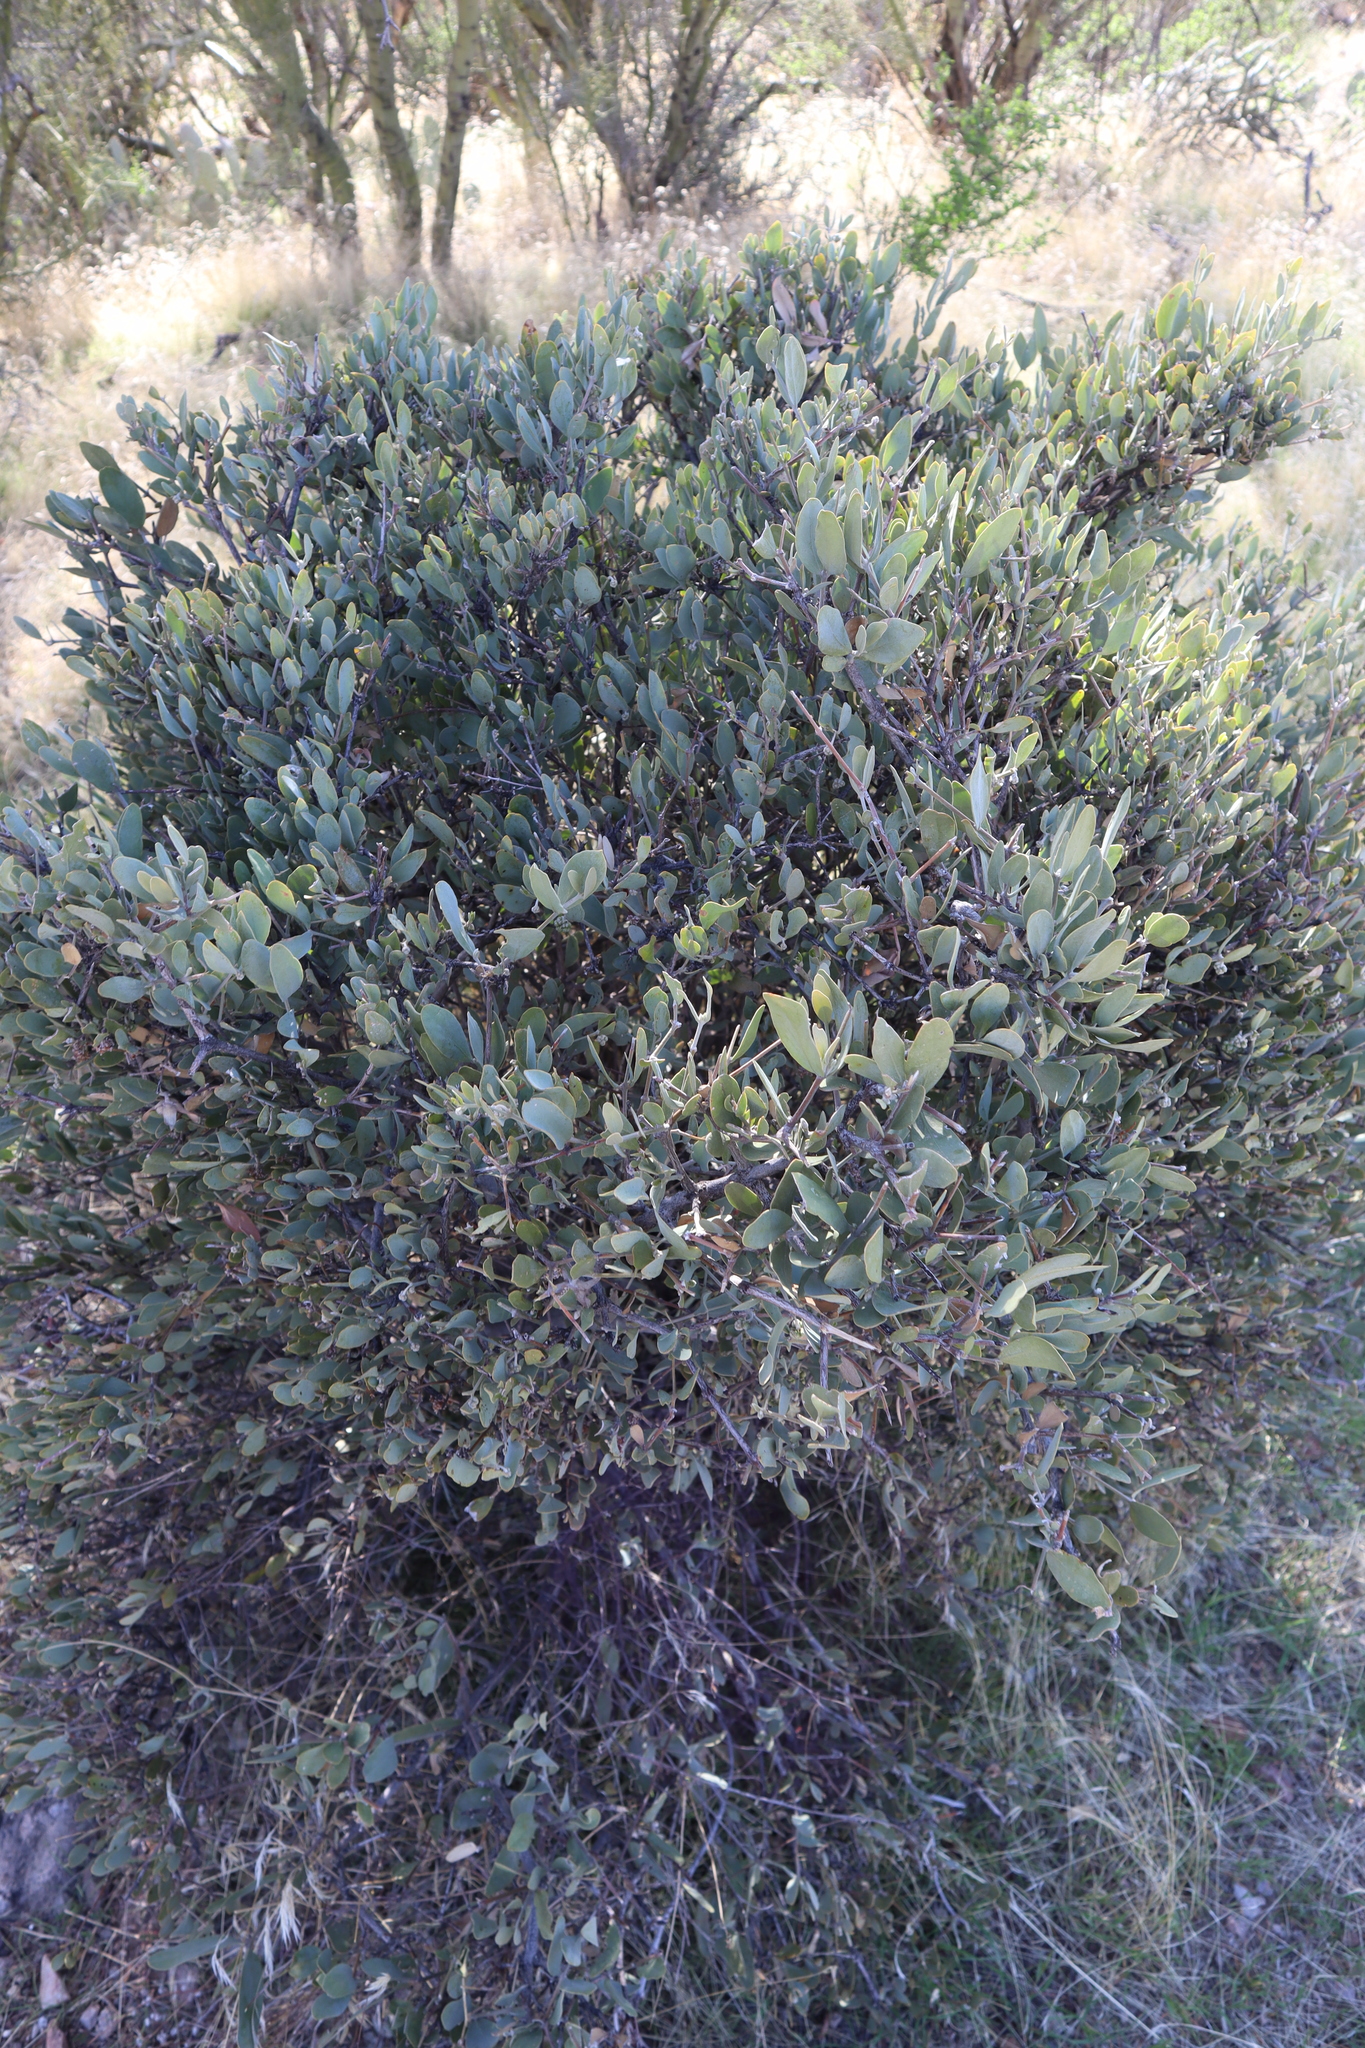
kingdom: Plantae
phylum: Tracheophyta
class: Magnoliopsida
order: Caryophyllales
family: Simmondsiaceae
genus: Simmondsia
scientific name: Simmondsia chinensis
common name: Jojoba
